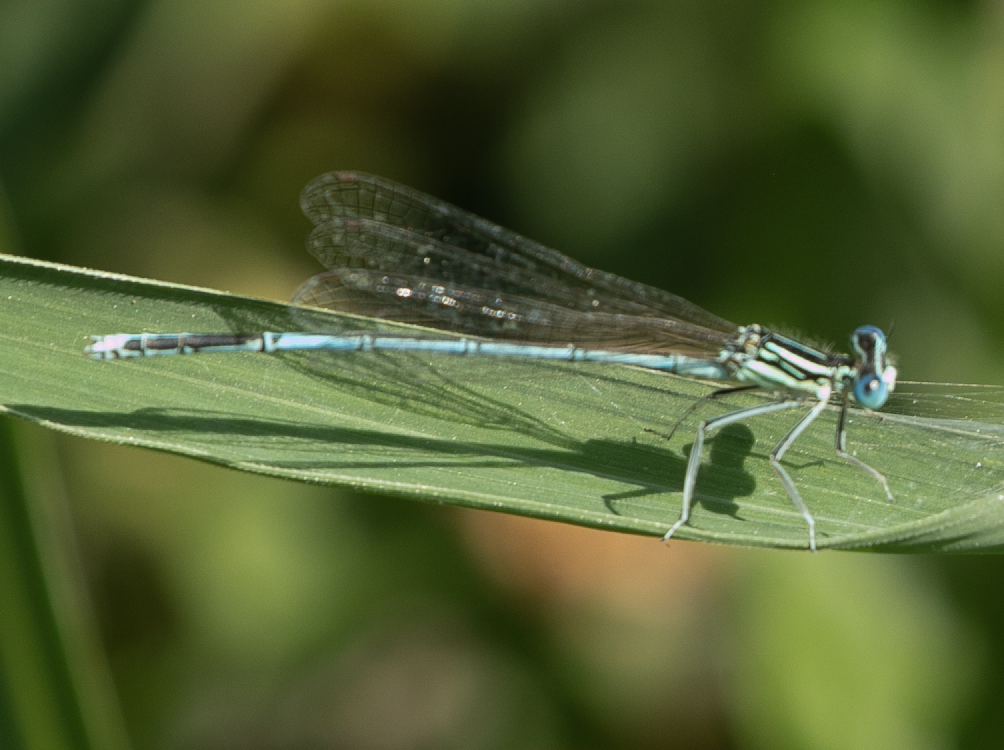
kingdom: Animalia
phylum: Arthropoda
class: Insecta
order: Odonata
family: Platycnemididae
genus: Platycnemis
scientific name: Platycnemis pennipes
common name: White-legged damselfly
